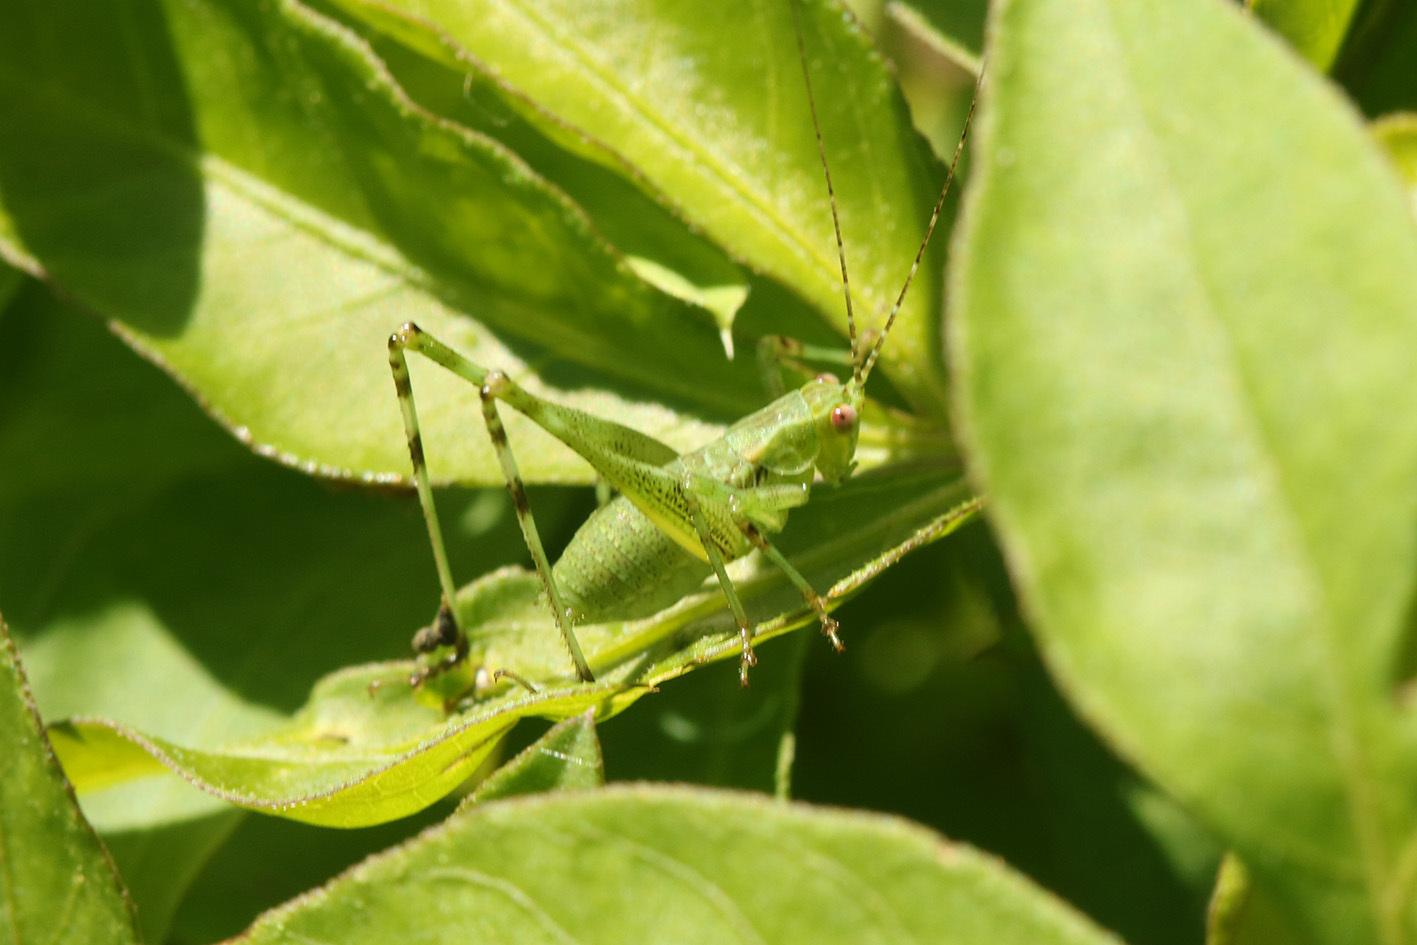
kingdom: Animalia
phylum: Arthropoda
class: Insecta
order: Orthoptera
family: Tettigoniidae
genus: Ligocatinus
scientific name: Ligocatinus spinatus
